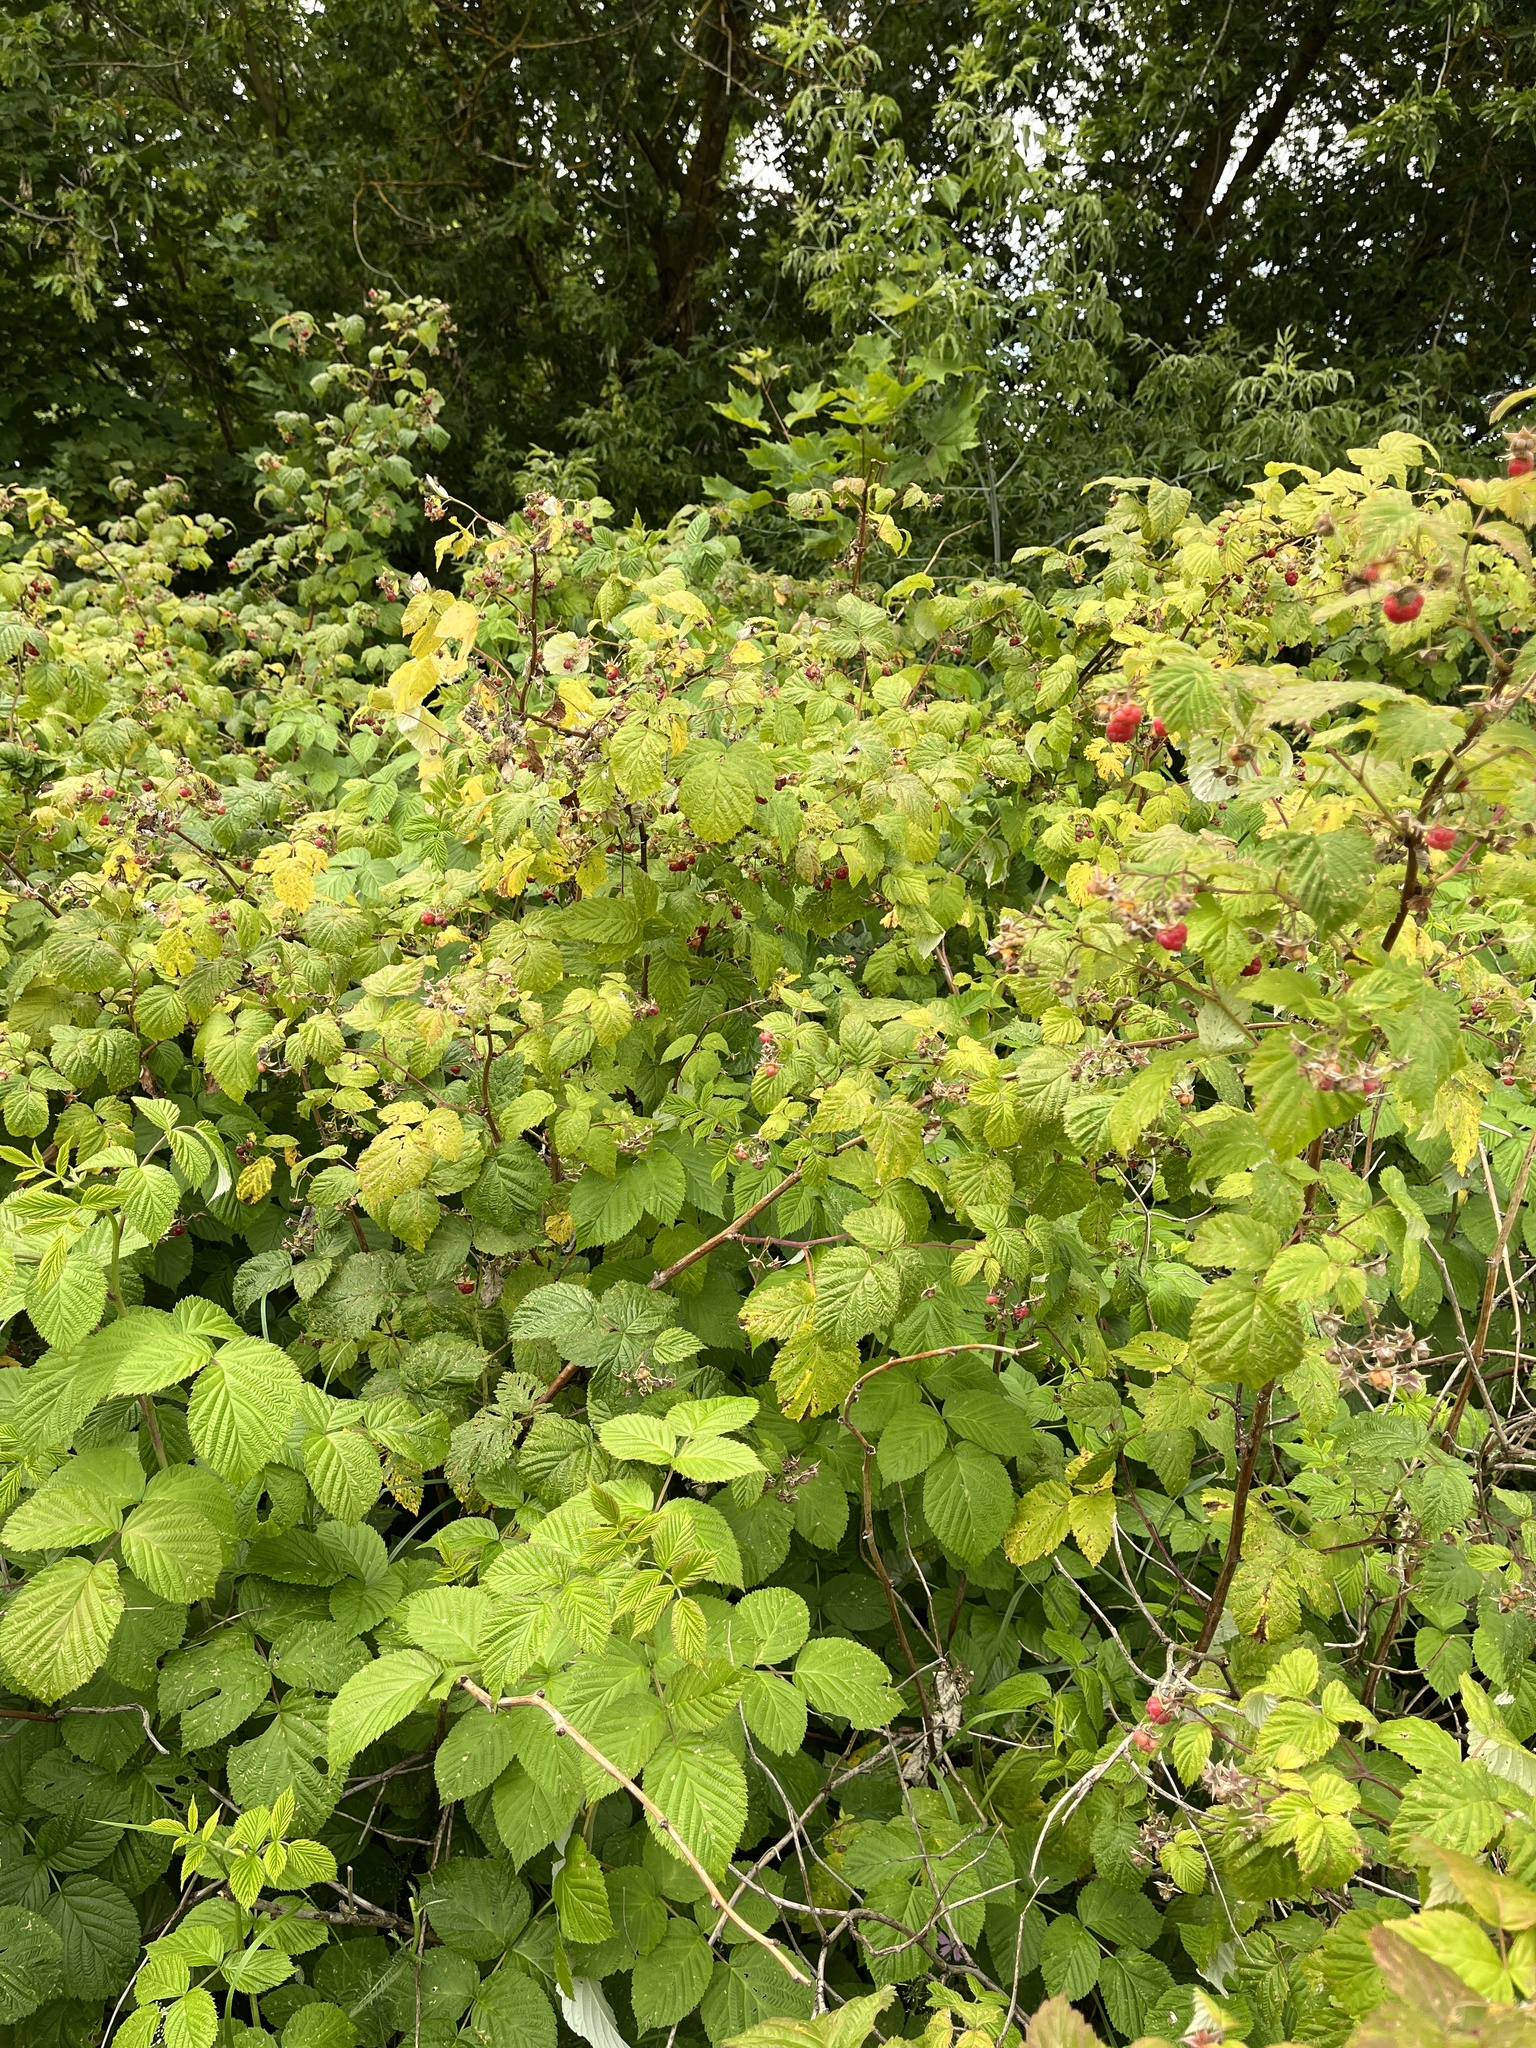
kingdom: Plantae
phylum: Tracheophyta
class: Magnoliopsida
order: Rosales
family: Rosaceae
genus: Rubus
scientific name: Rubus idaeus
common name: Raspberry
